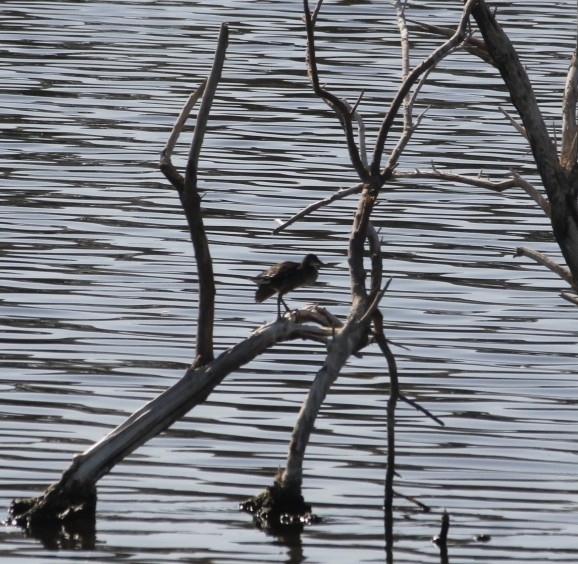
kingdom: Animalia
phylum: Chordata
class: Aves
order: Gruiformes
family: Rallidae
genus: Gallinula
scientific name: Gallinula chloropus
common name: Common moorhen
